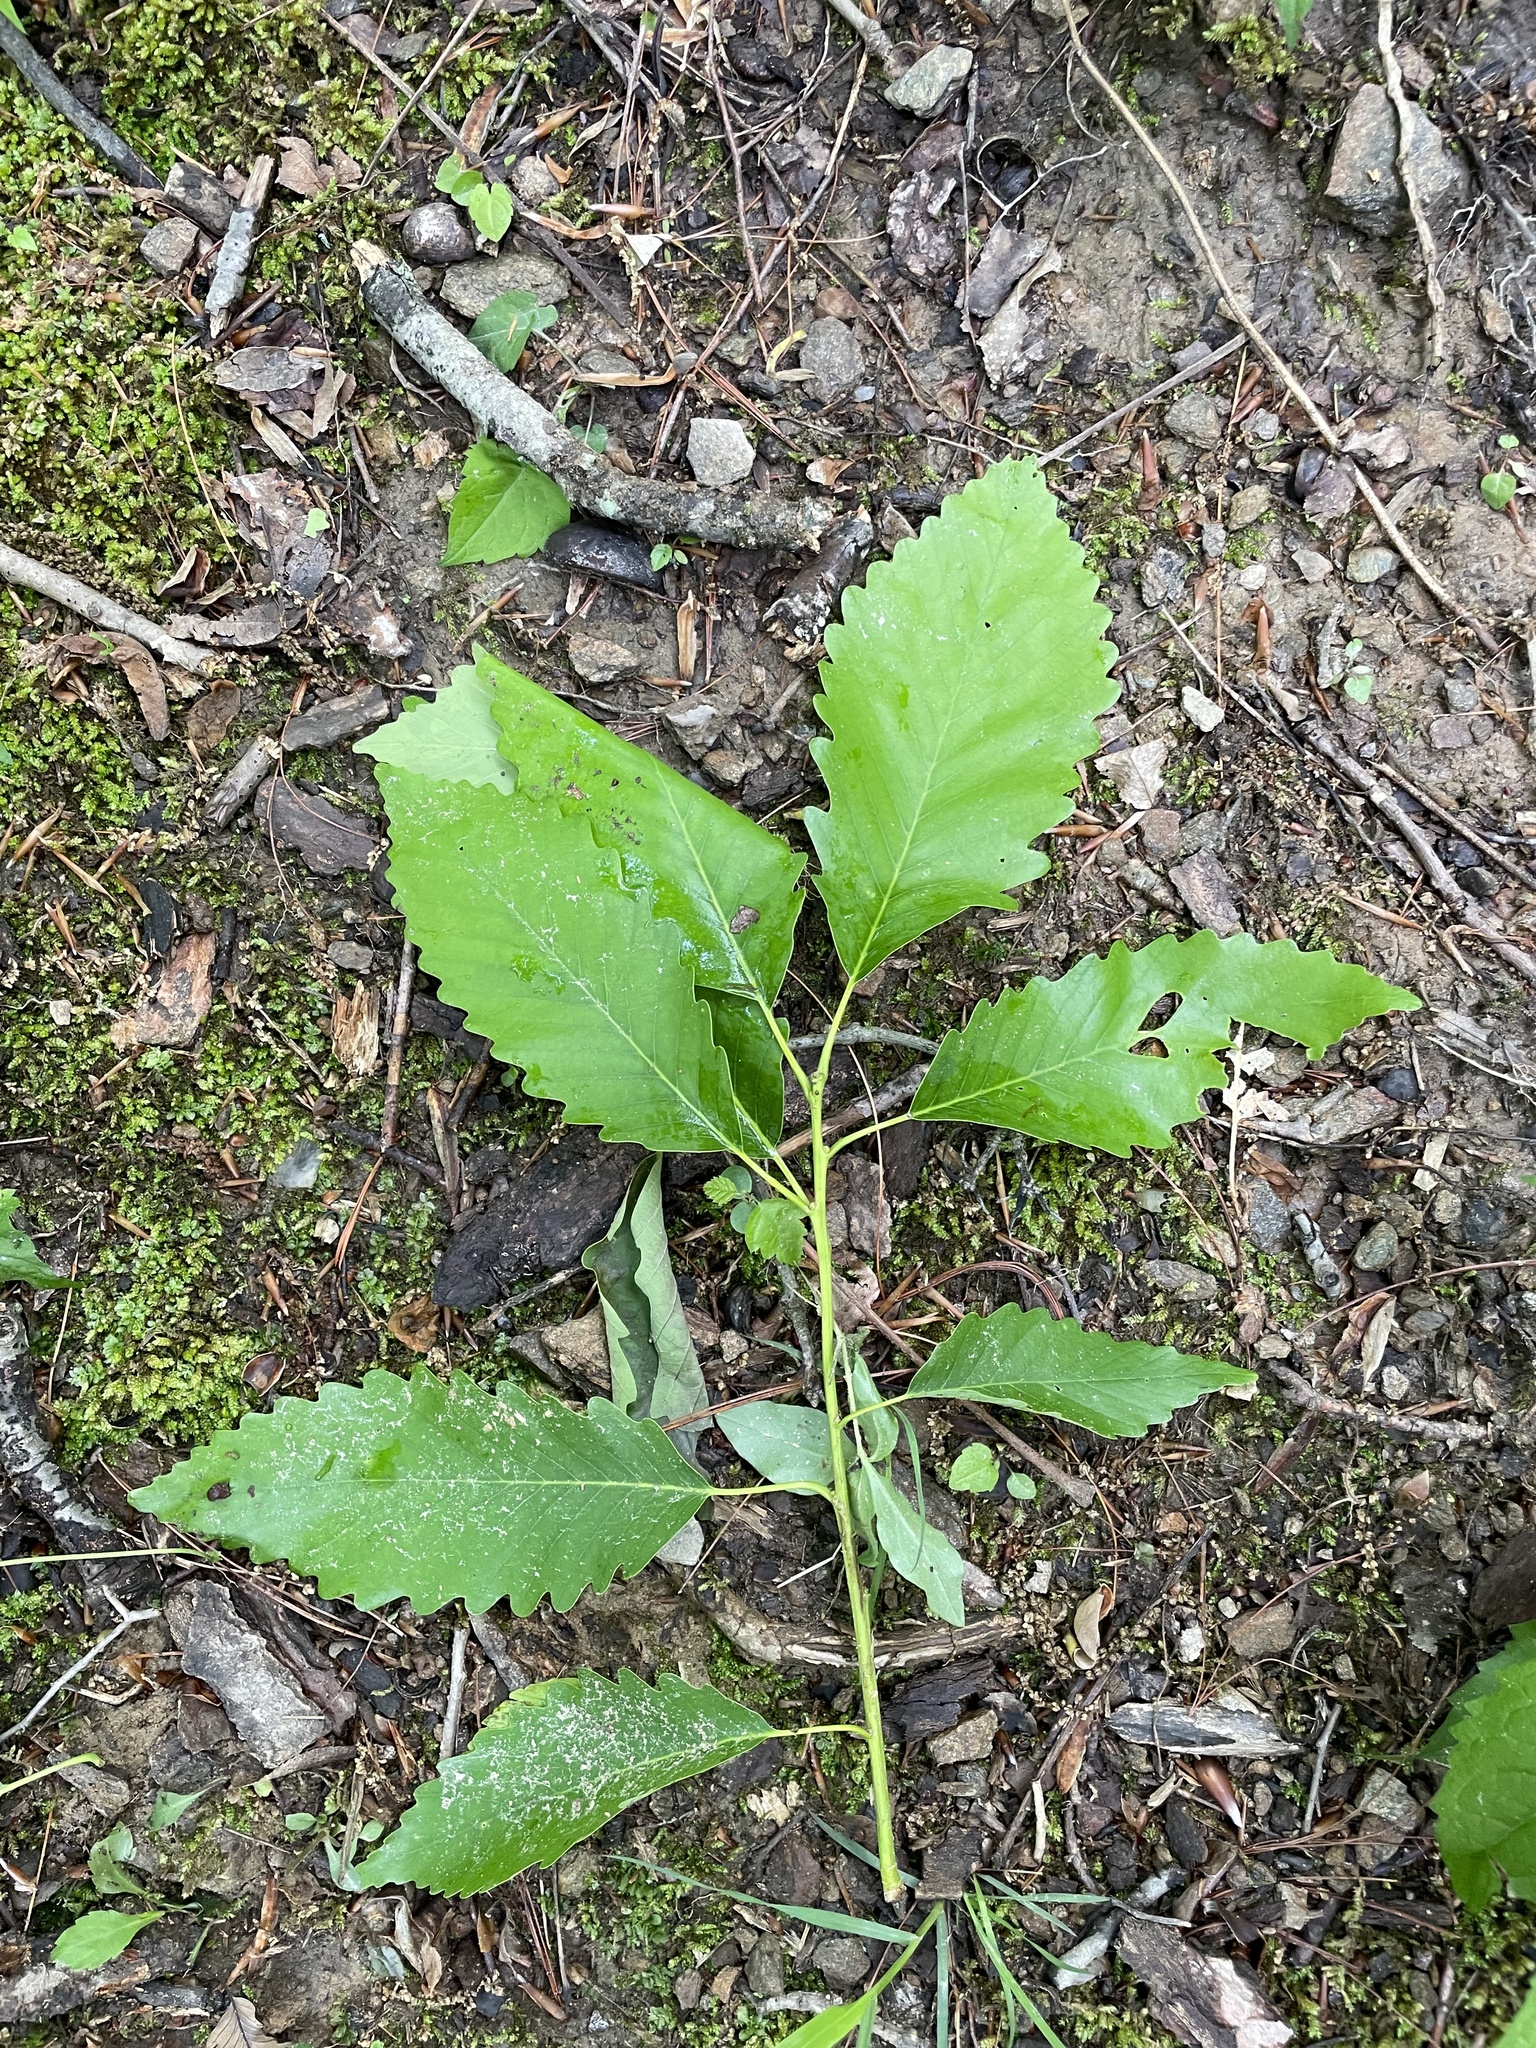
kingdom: Plantae
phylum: Tracheophyta
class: Magnoliopsida
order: Fagales
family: Fagaceae
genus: Quercus
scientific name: Quercus montana
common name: Chestnut oak
